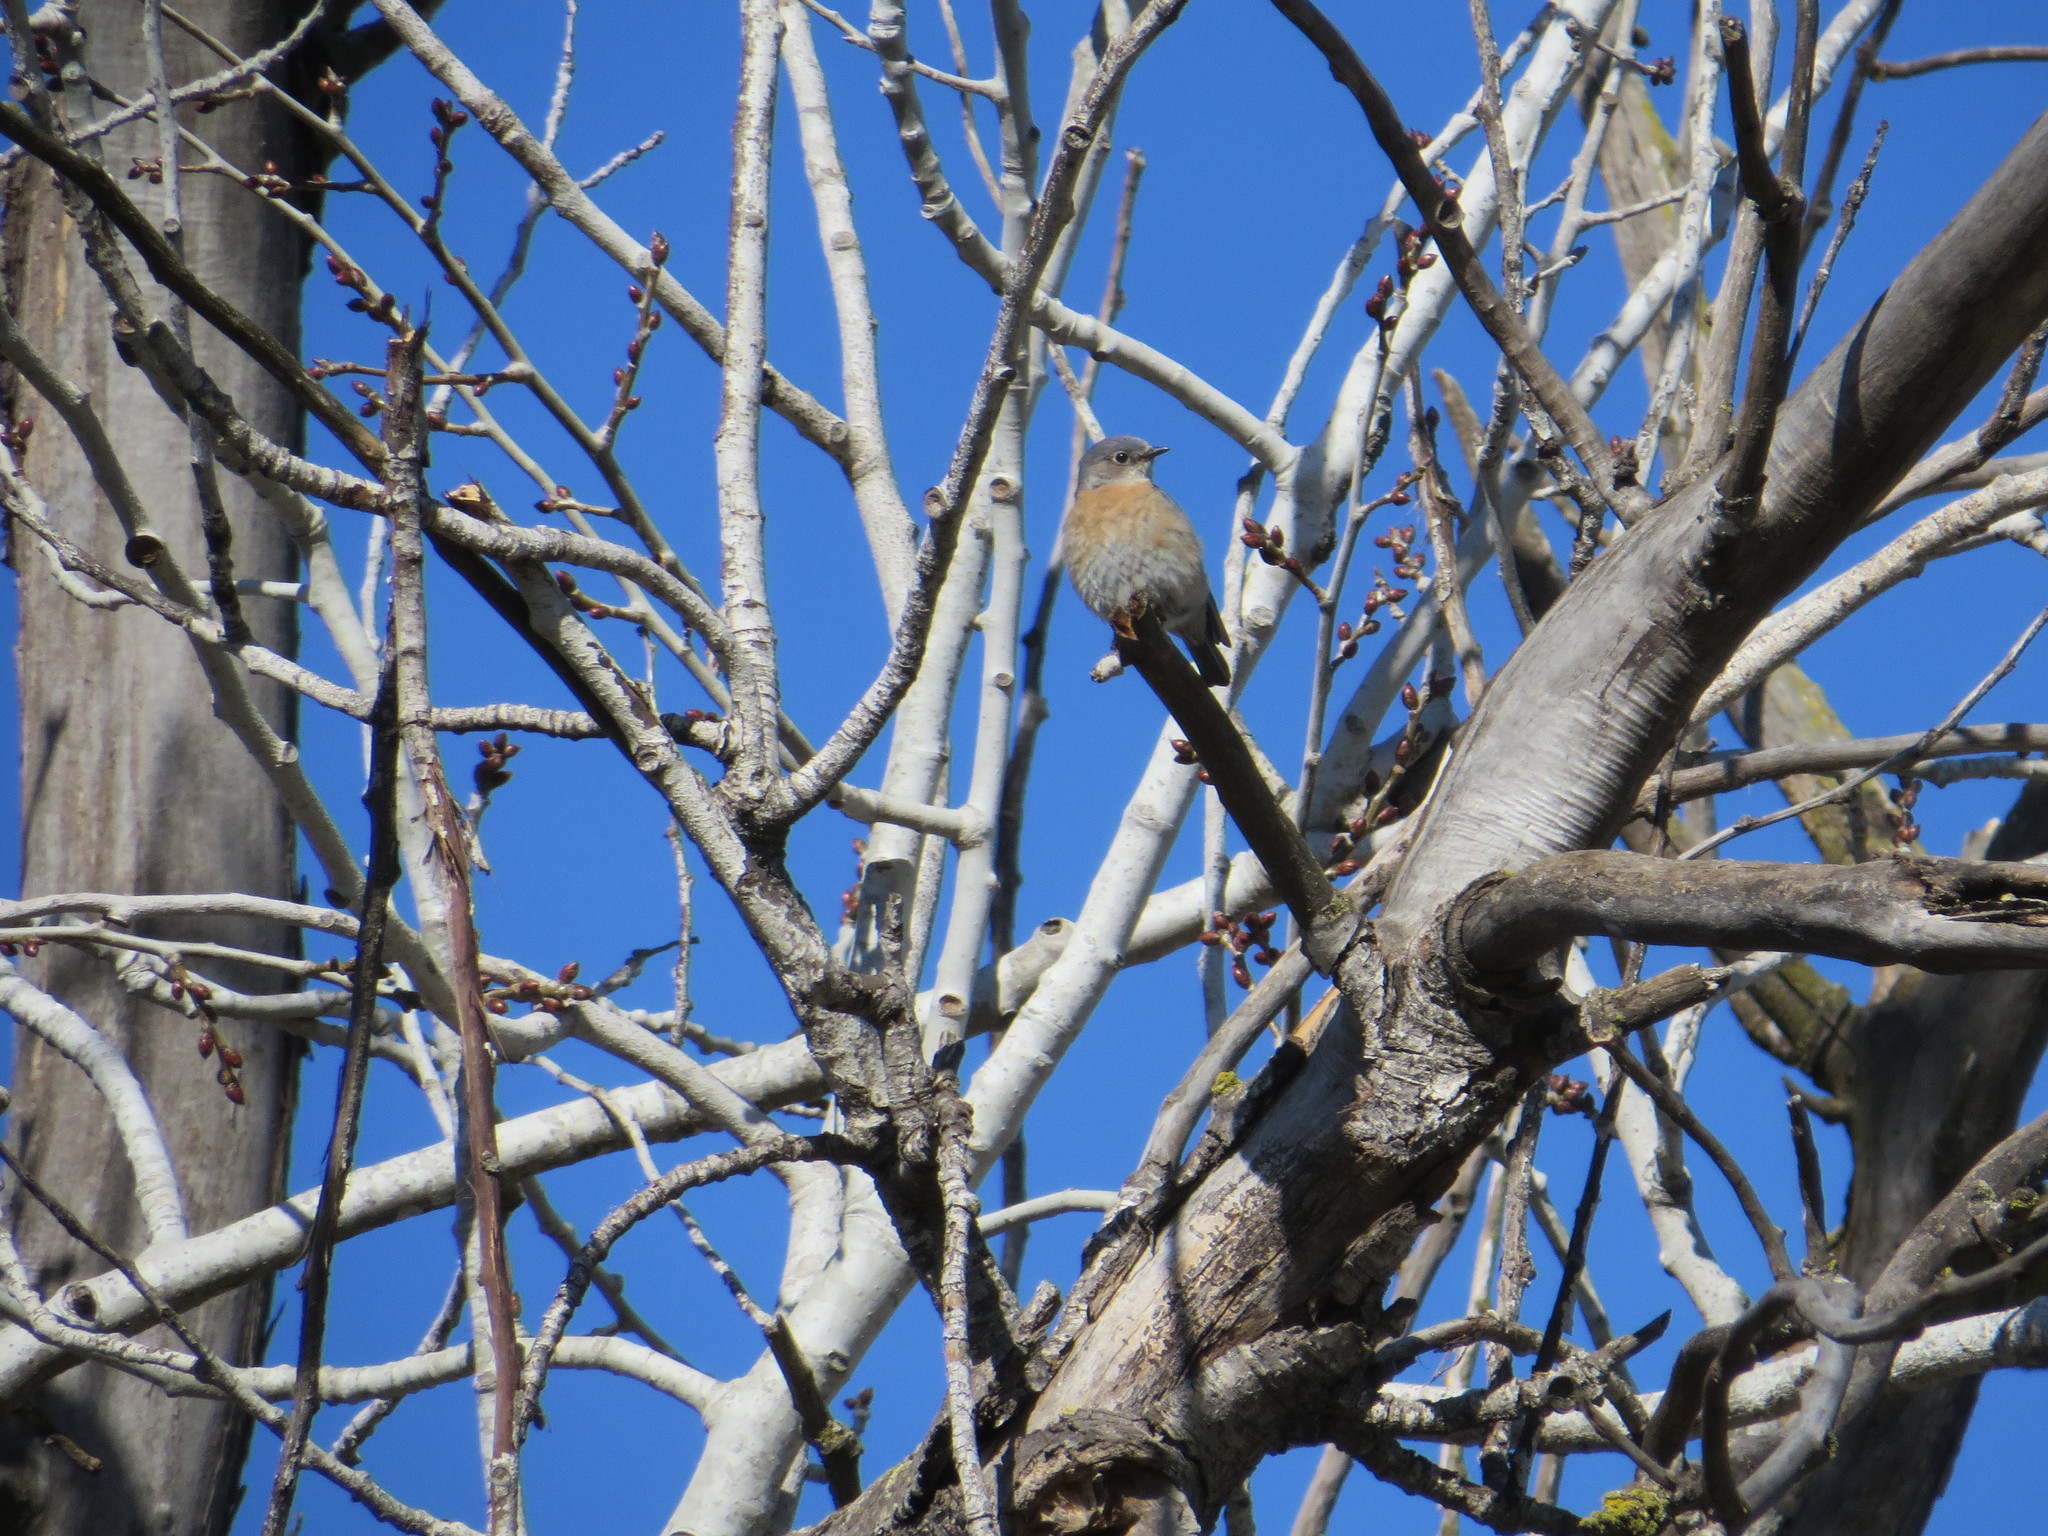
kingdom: Animalia
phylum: Chordata
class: Aves
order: Passeriformes
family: Turdidae
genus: Sialia
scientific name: Sialia mexicana
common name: Western bluebird
